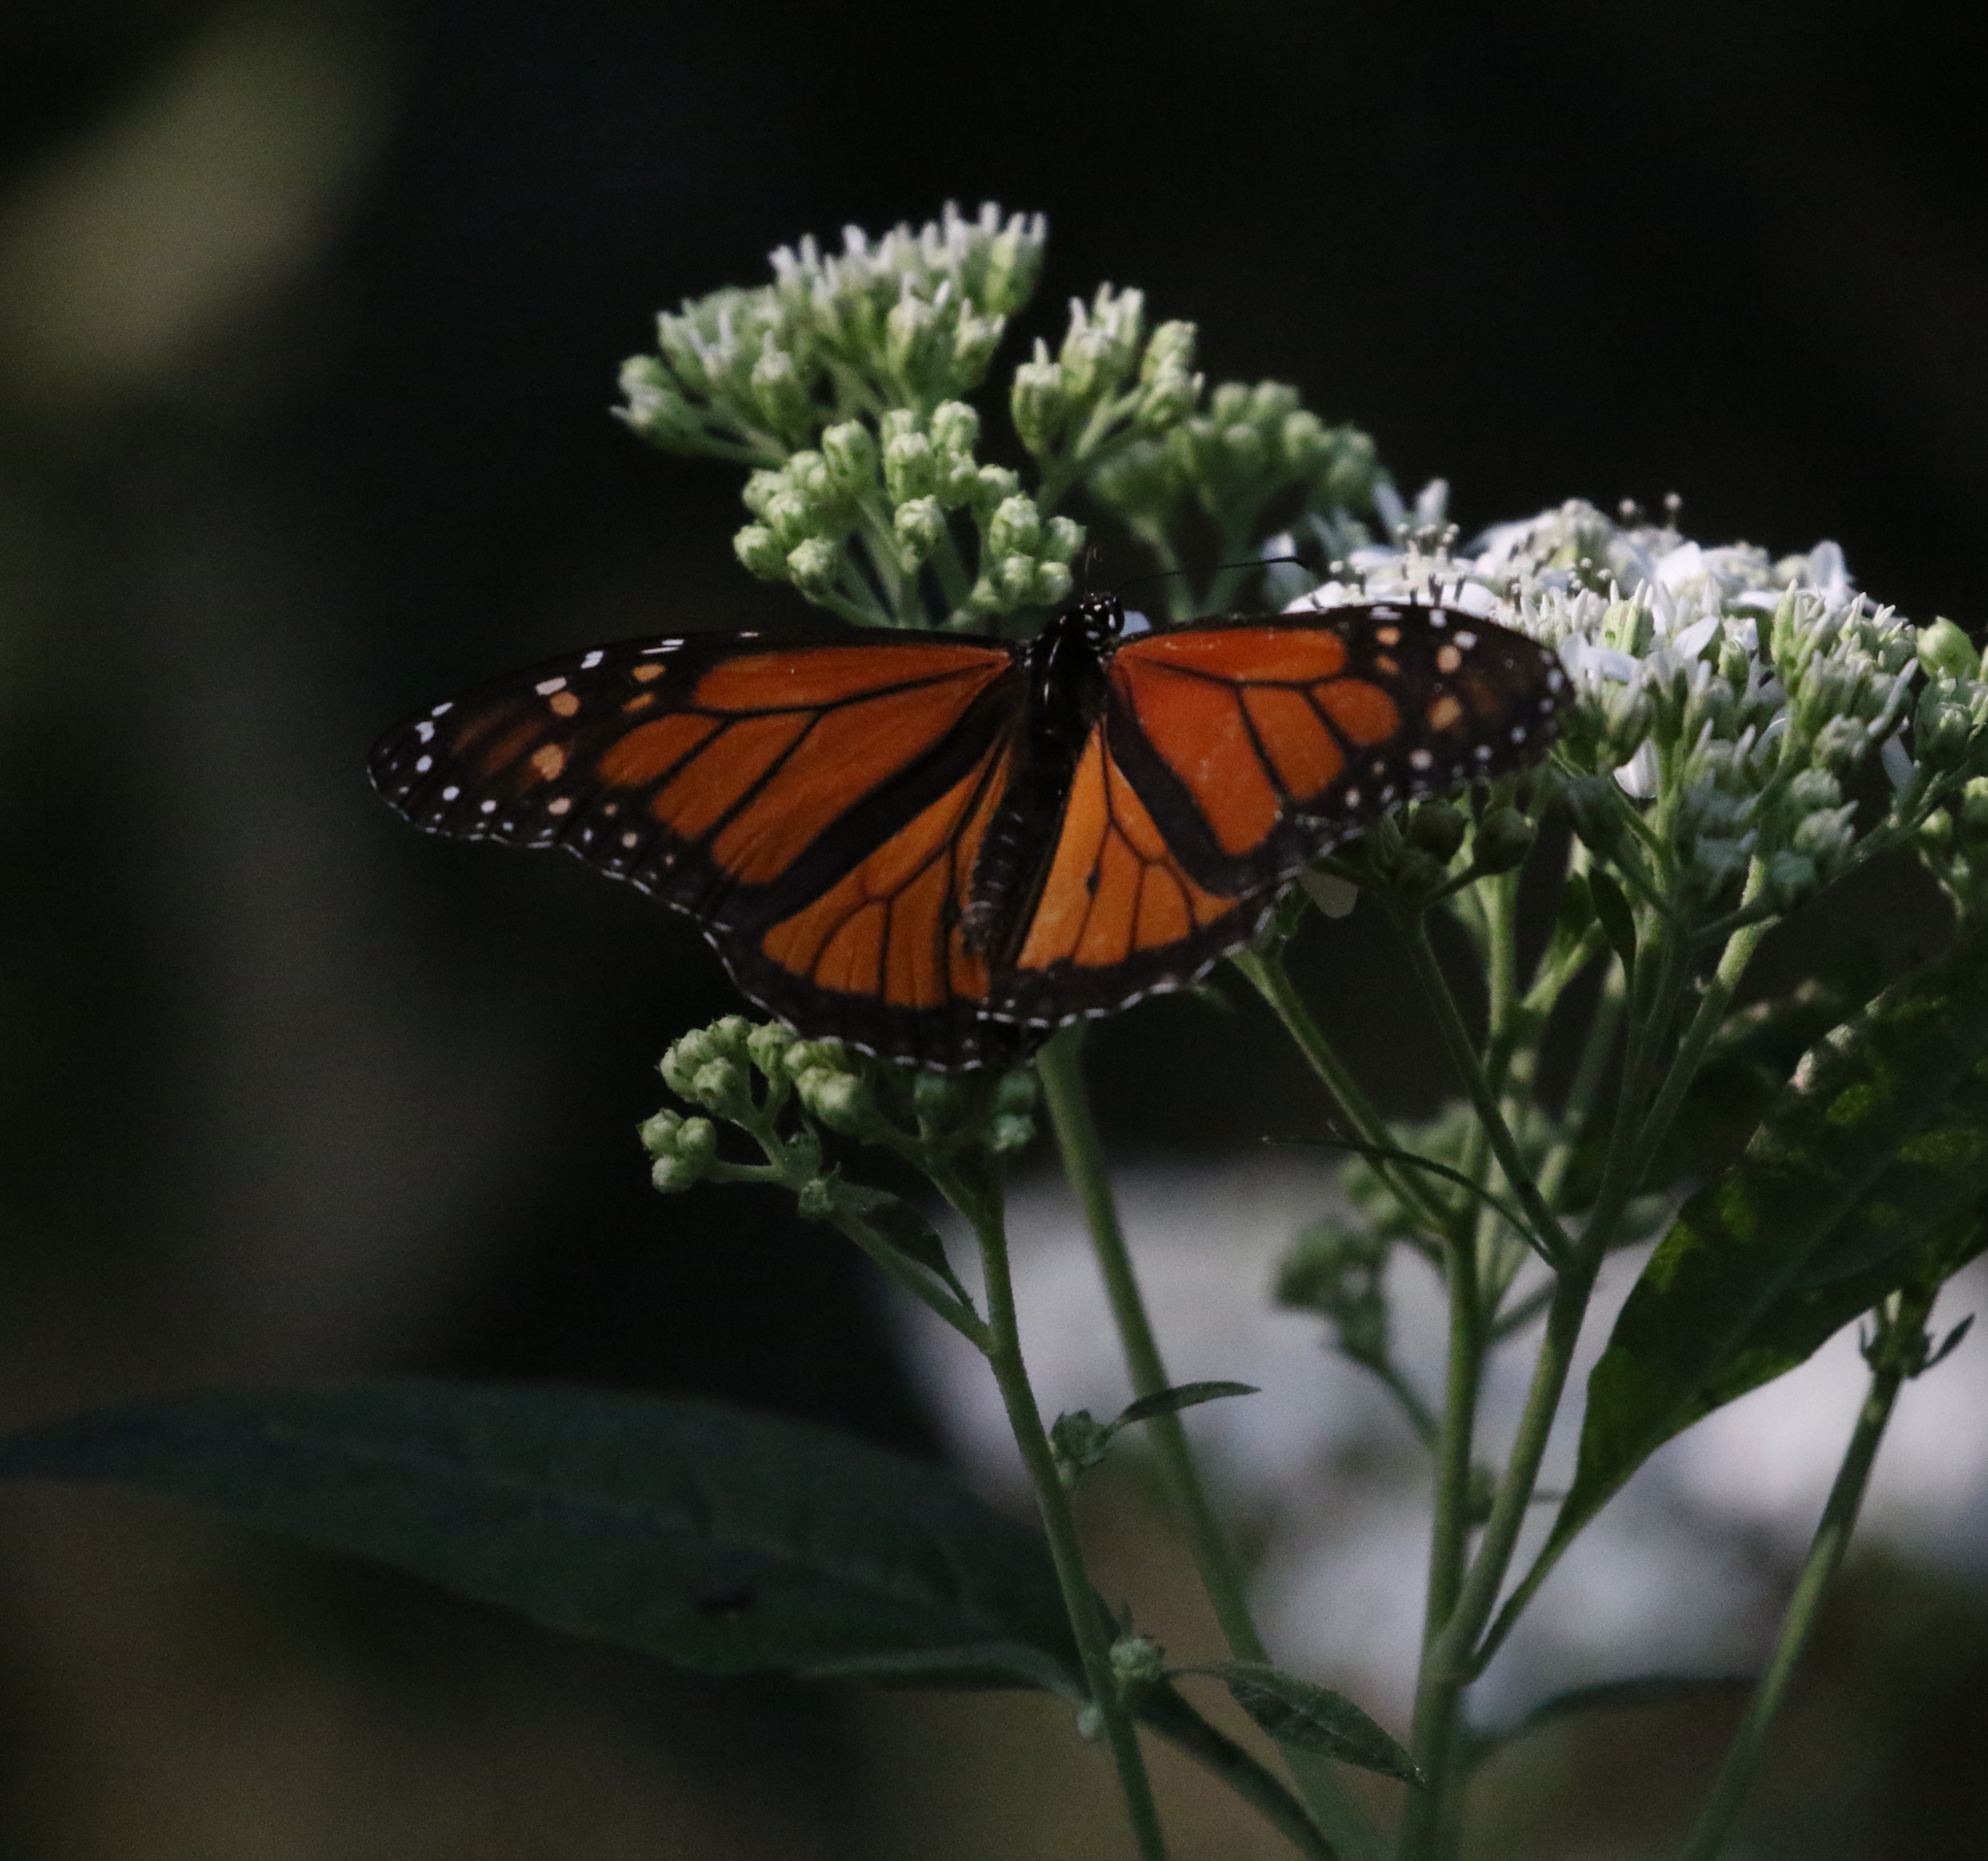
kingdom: Animalia
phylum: Arthropoda
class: Insecta
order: Lepidoptera
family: Nymphalidae
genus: Danaus
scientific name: Danaus plexippus
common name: Monarch
